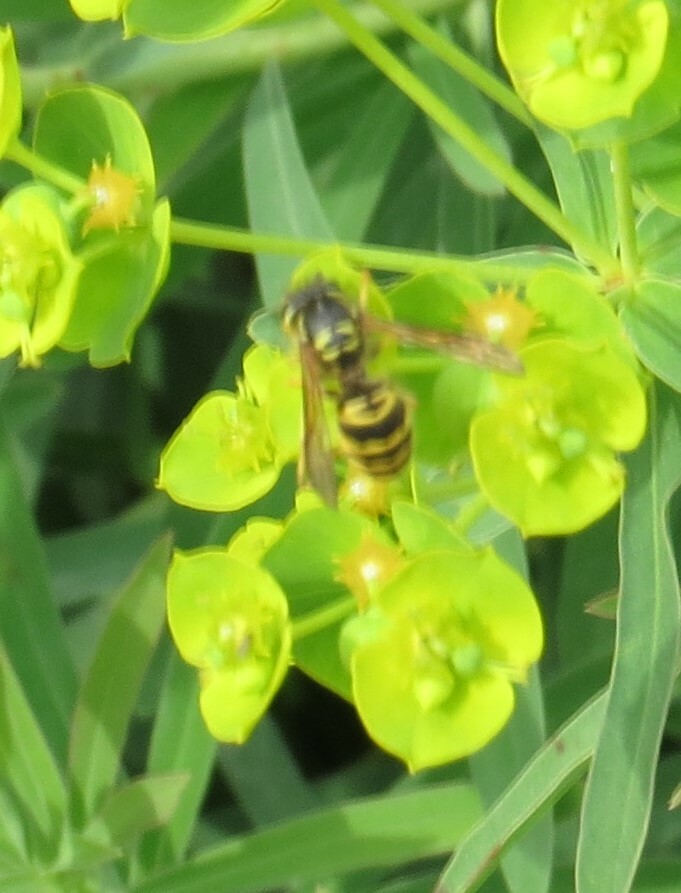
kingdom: Animalia
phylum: Arthropoda
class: Insecta
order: Hymenoptera
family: Vespidae
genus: Vespula
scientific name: Vespula maculifrons
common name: Eastern yellowjacket
